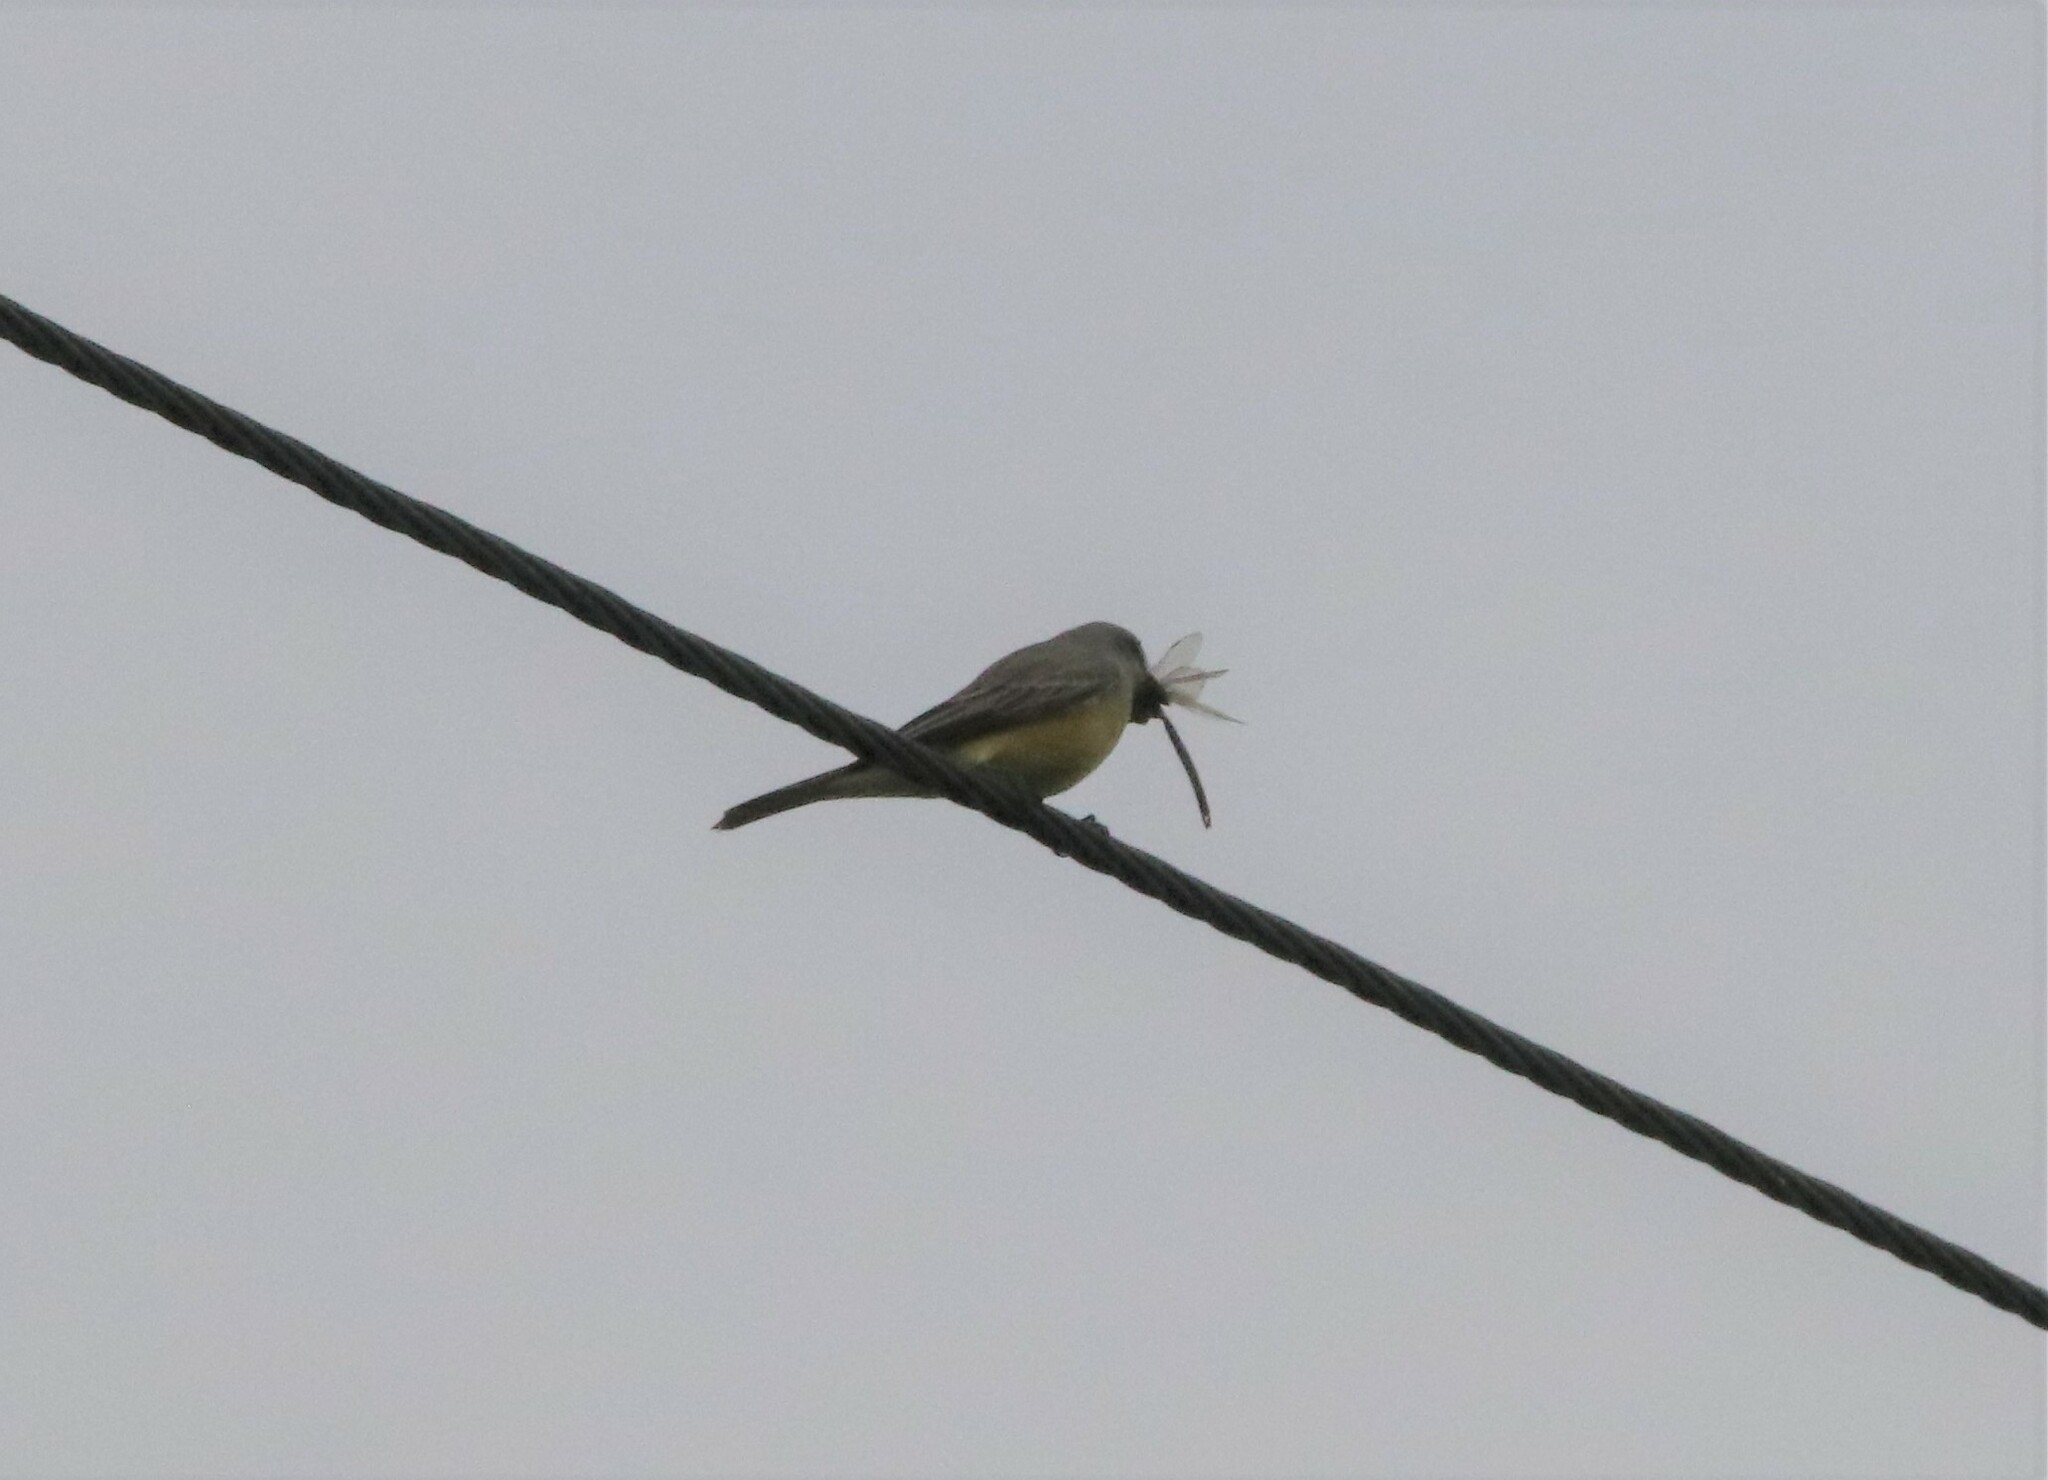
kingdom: Animalia
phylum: Chordata
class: Aves
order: Passeriformes
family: Tyrannidae
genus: Tyrannus
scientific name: Tyrannus vociferans
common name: Cassin's kingbird
